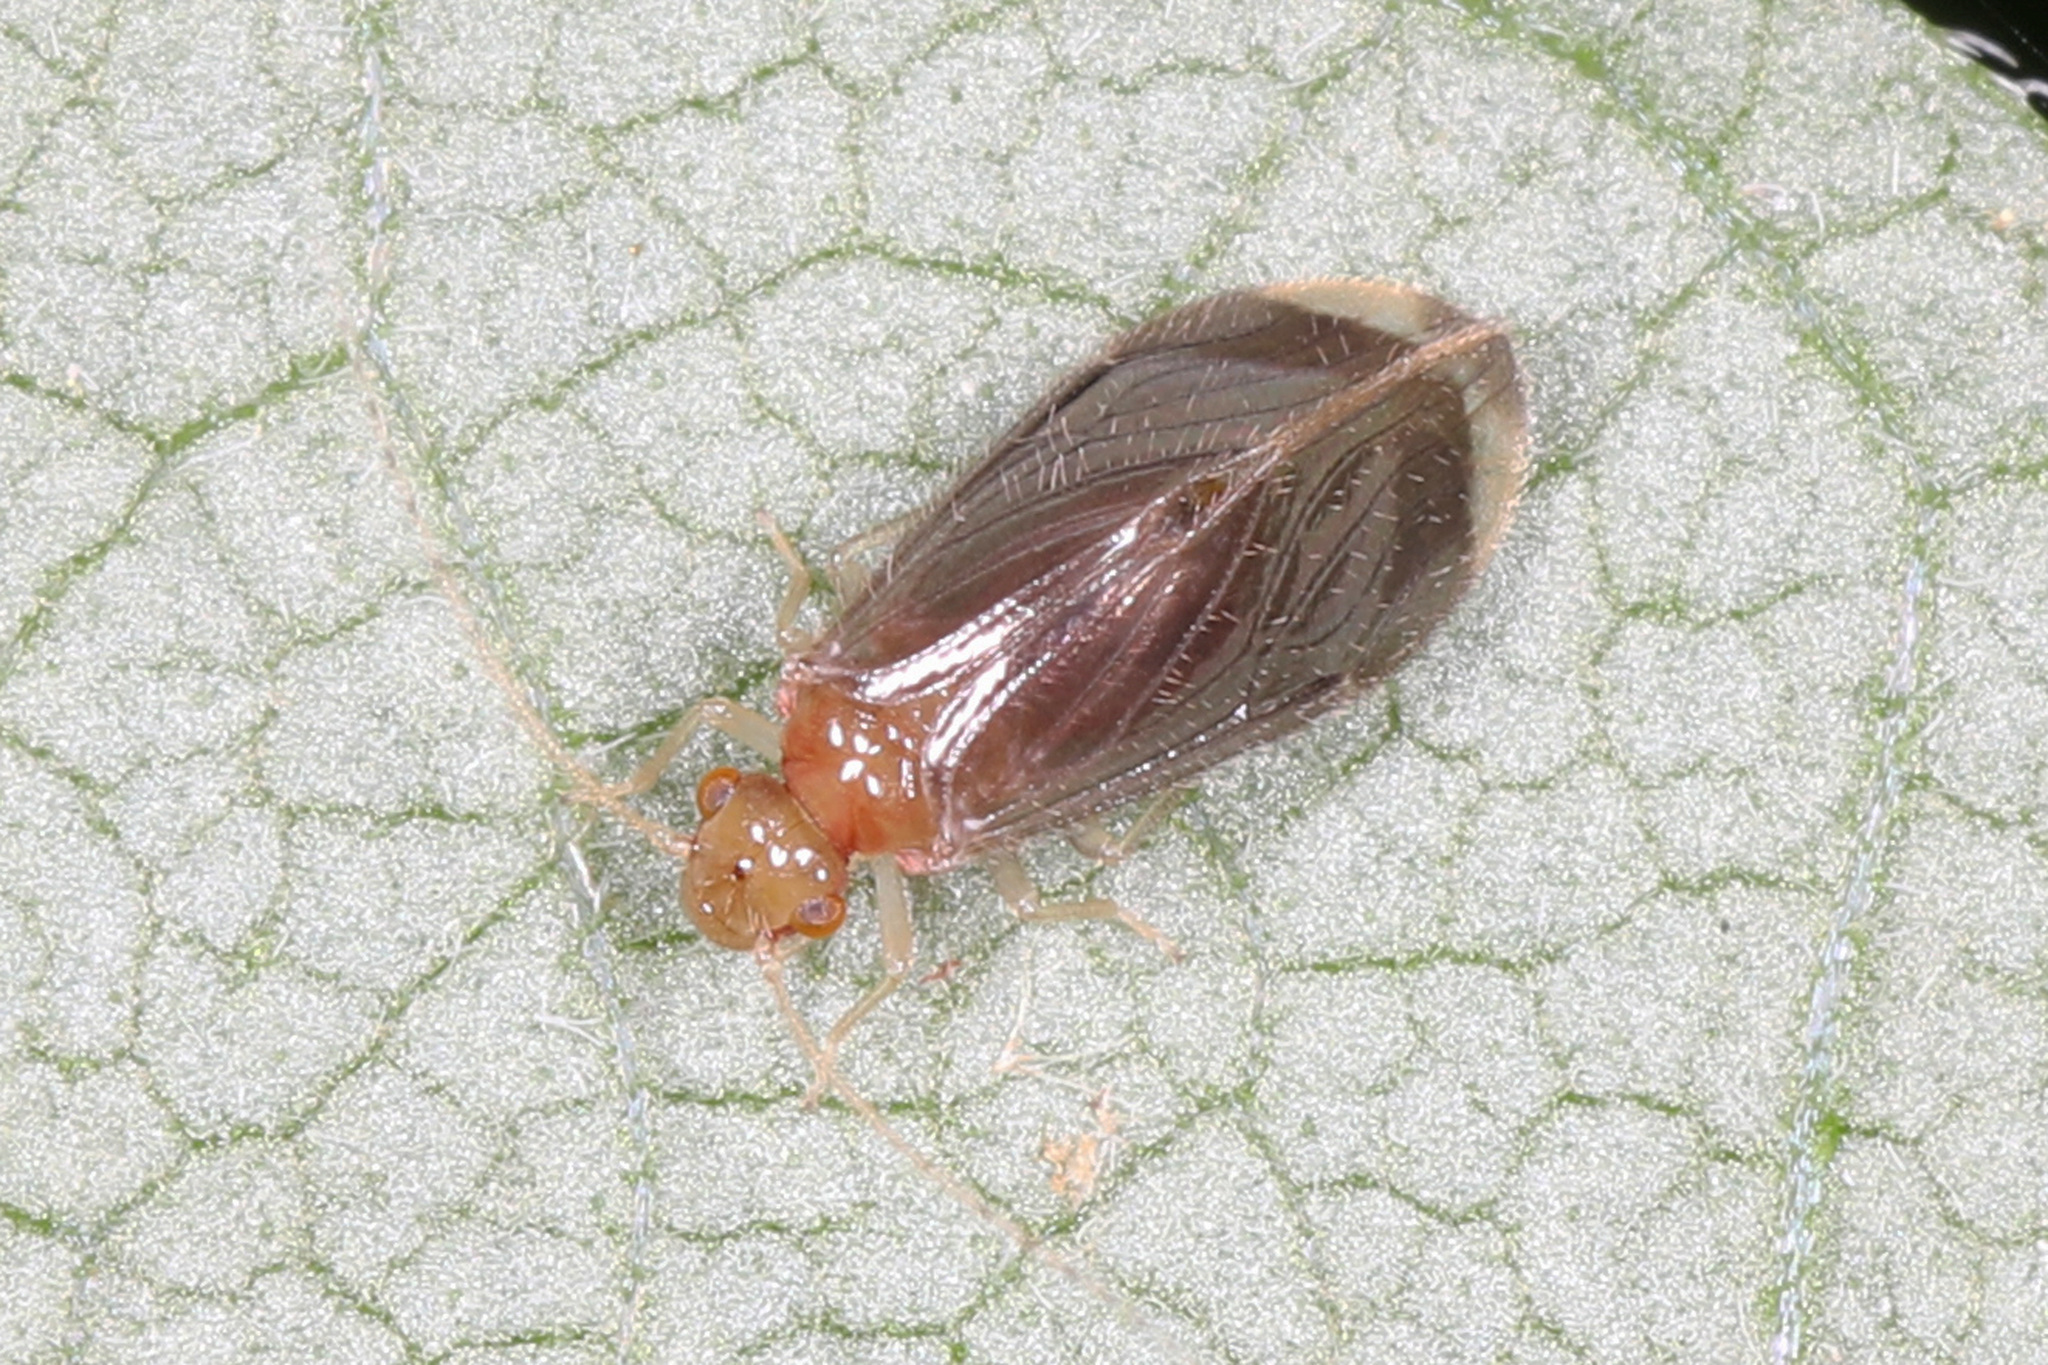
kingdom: Animalia
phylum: Arthropoda
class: Insecta
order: Psocodea
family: Amphipsocidae
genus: Polypsocus
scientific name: Polypsocus corruptus
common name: Corrupt barklouse
